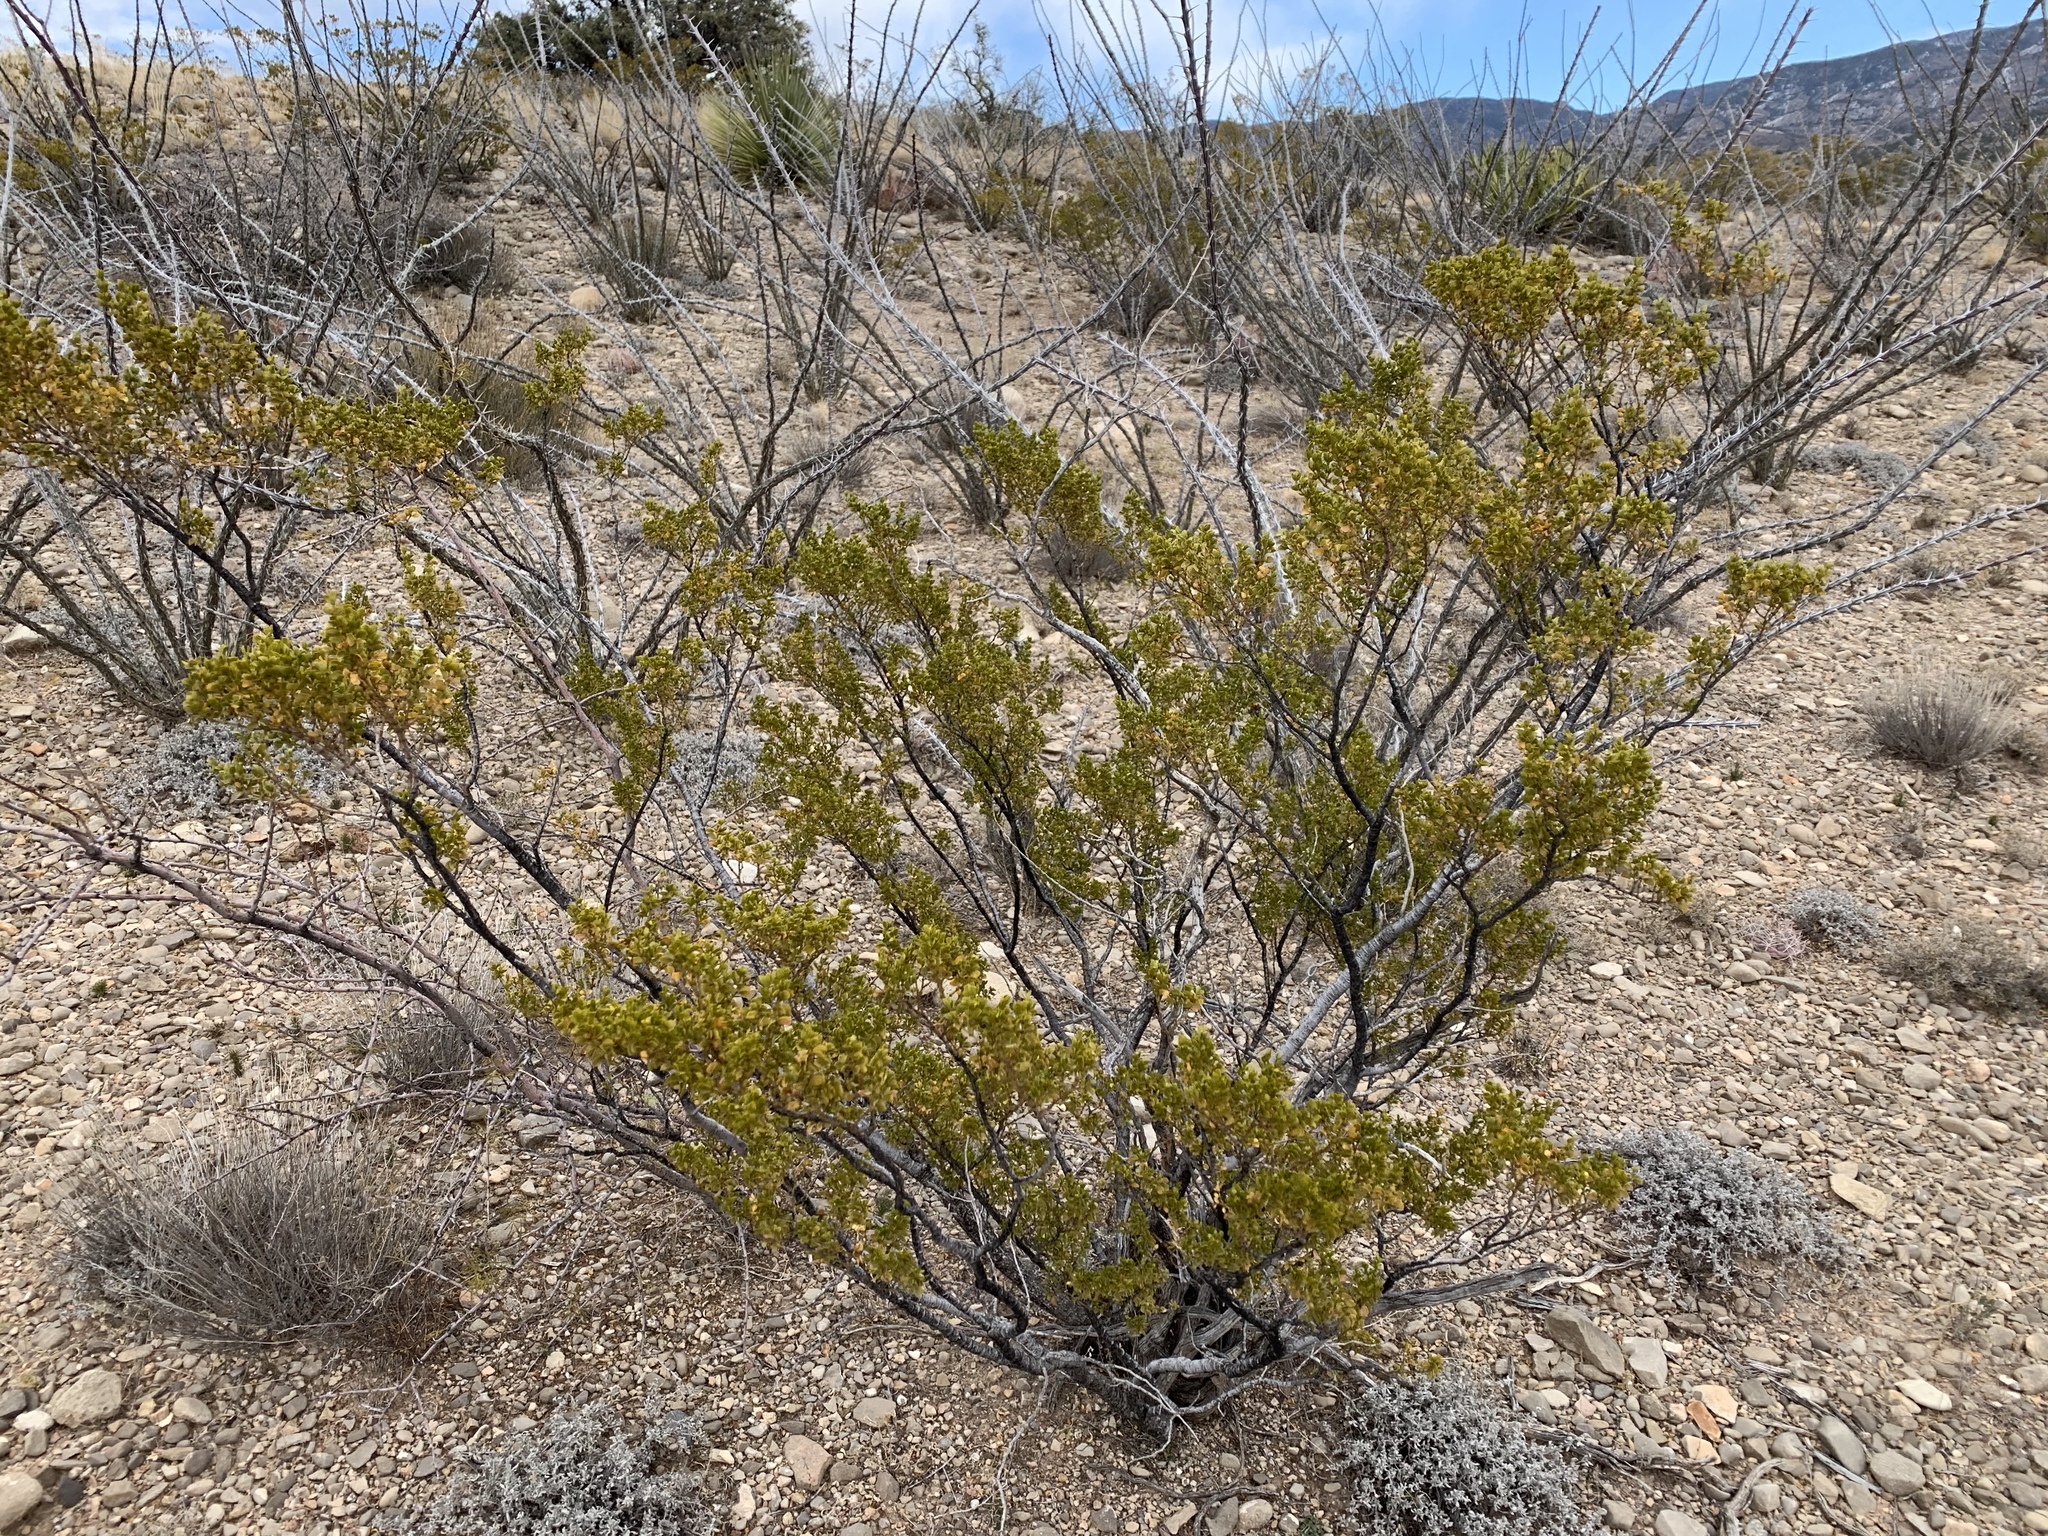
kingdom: Plantae
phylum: Tracheophyta
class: Magnoliopsida
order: Zygophyllales
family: Zygophyllaceae
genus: Larrea
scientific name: Larrea tridentata
